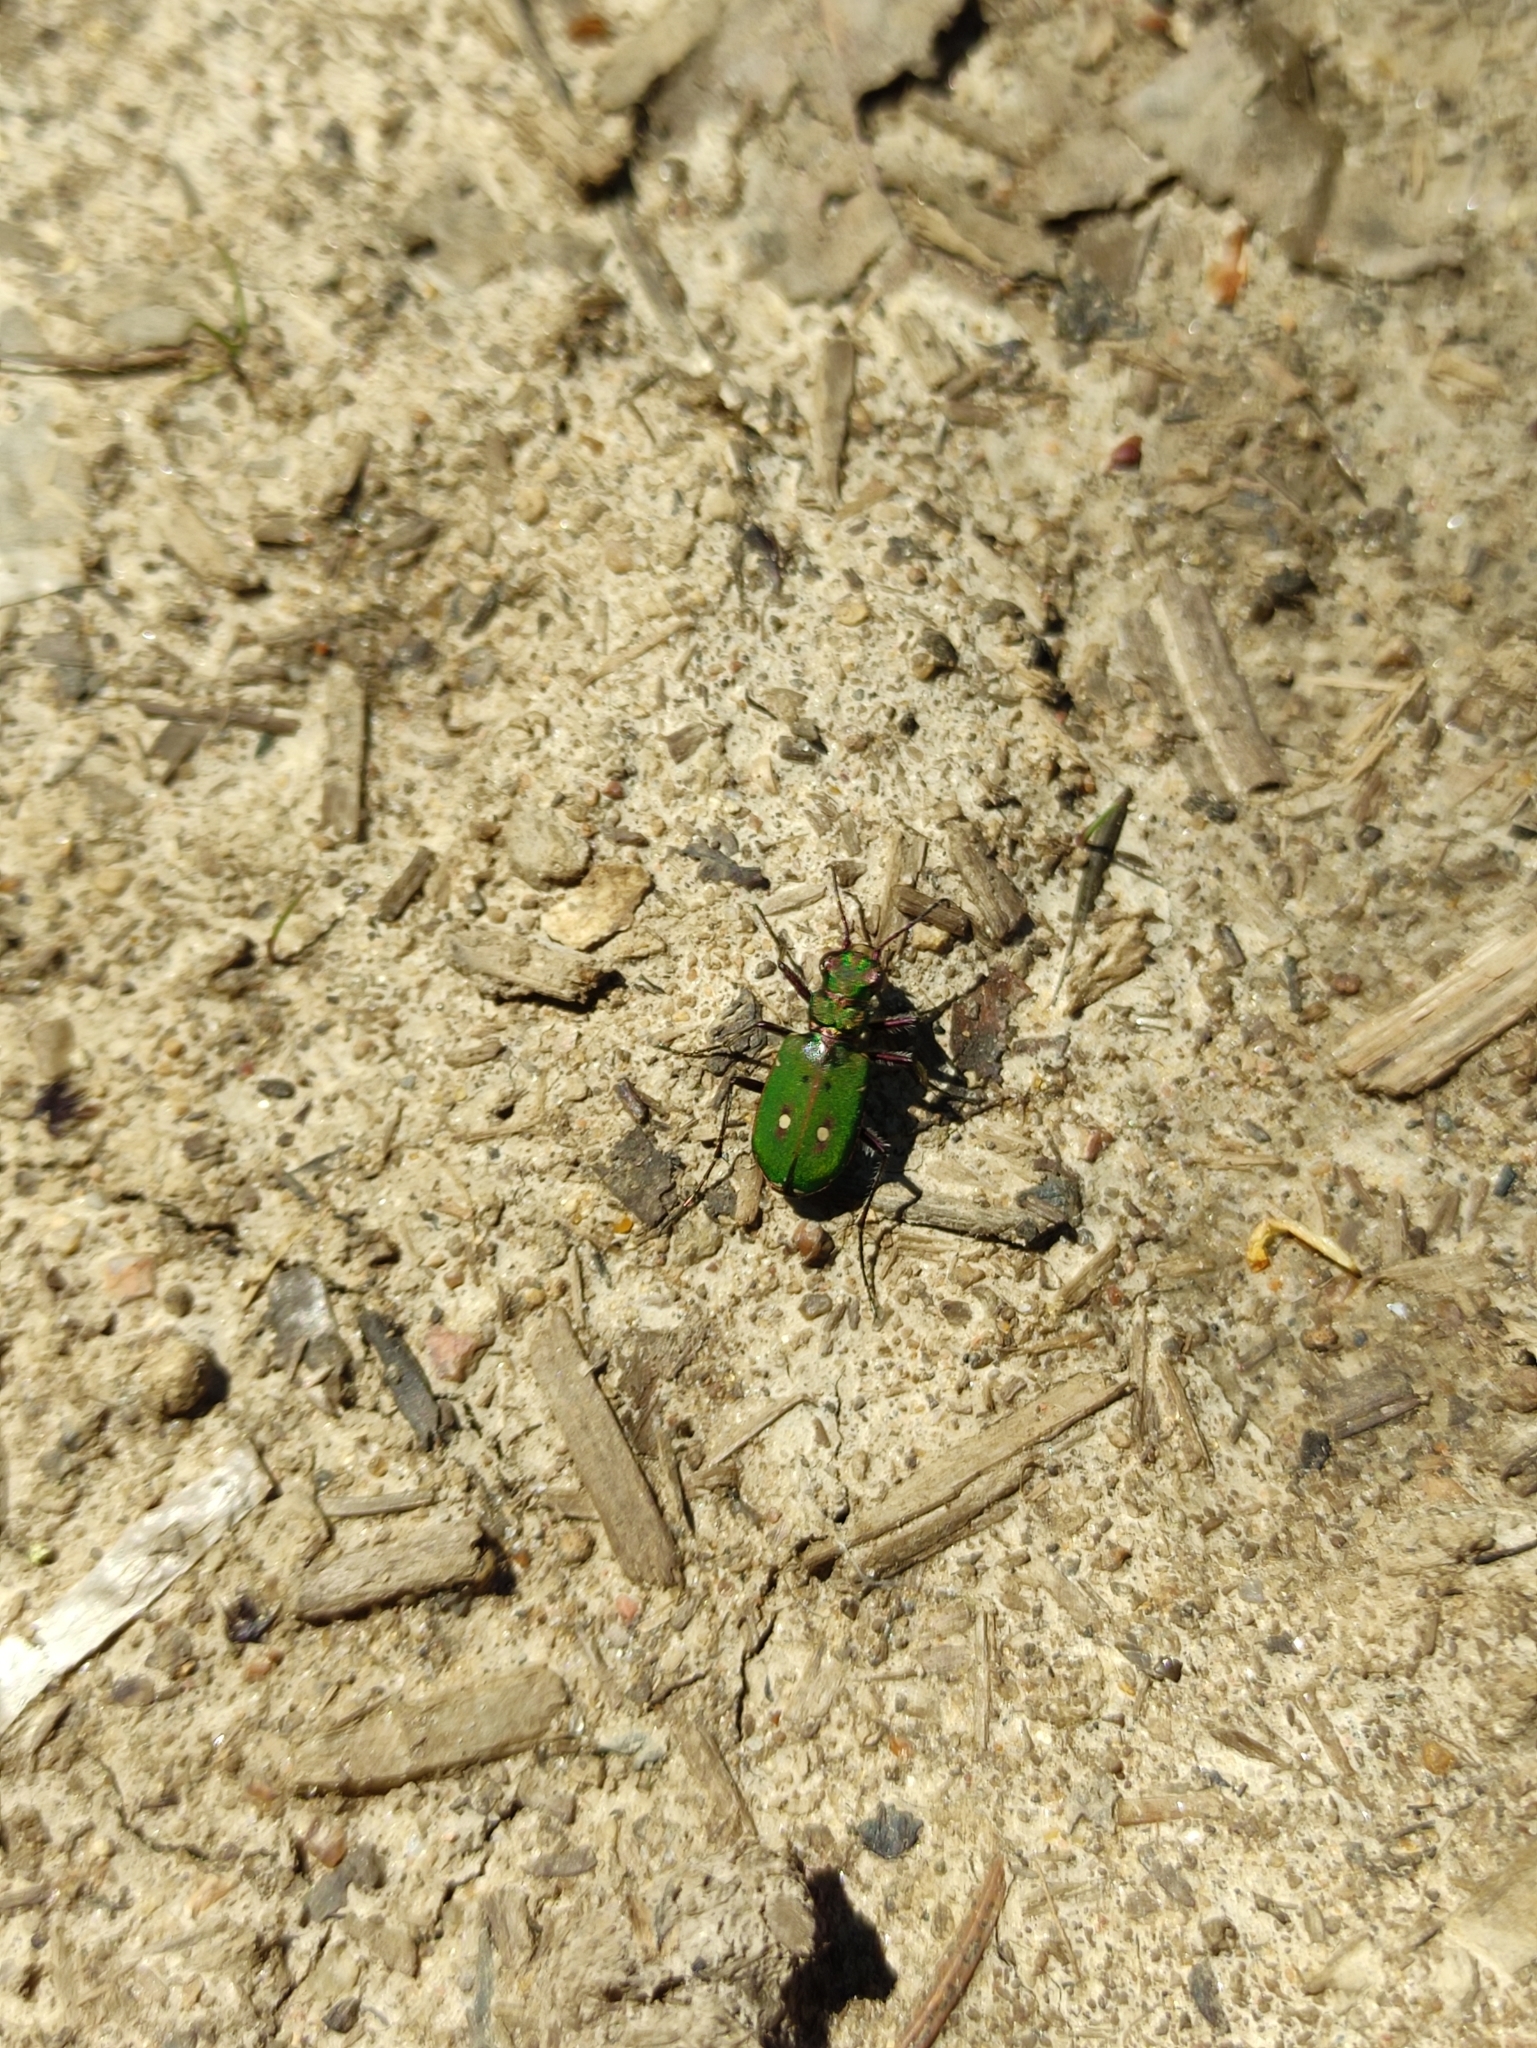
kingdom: Animalia
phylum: Arthropoda
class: Insecta
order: Coleoptera
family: Carabidae
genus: Cicindela
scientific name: Cicindela campestris
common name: Common tiger beetle
